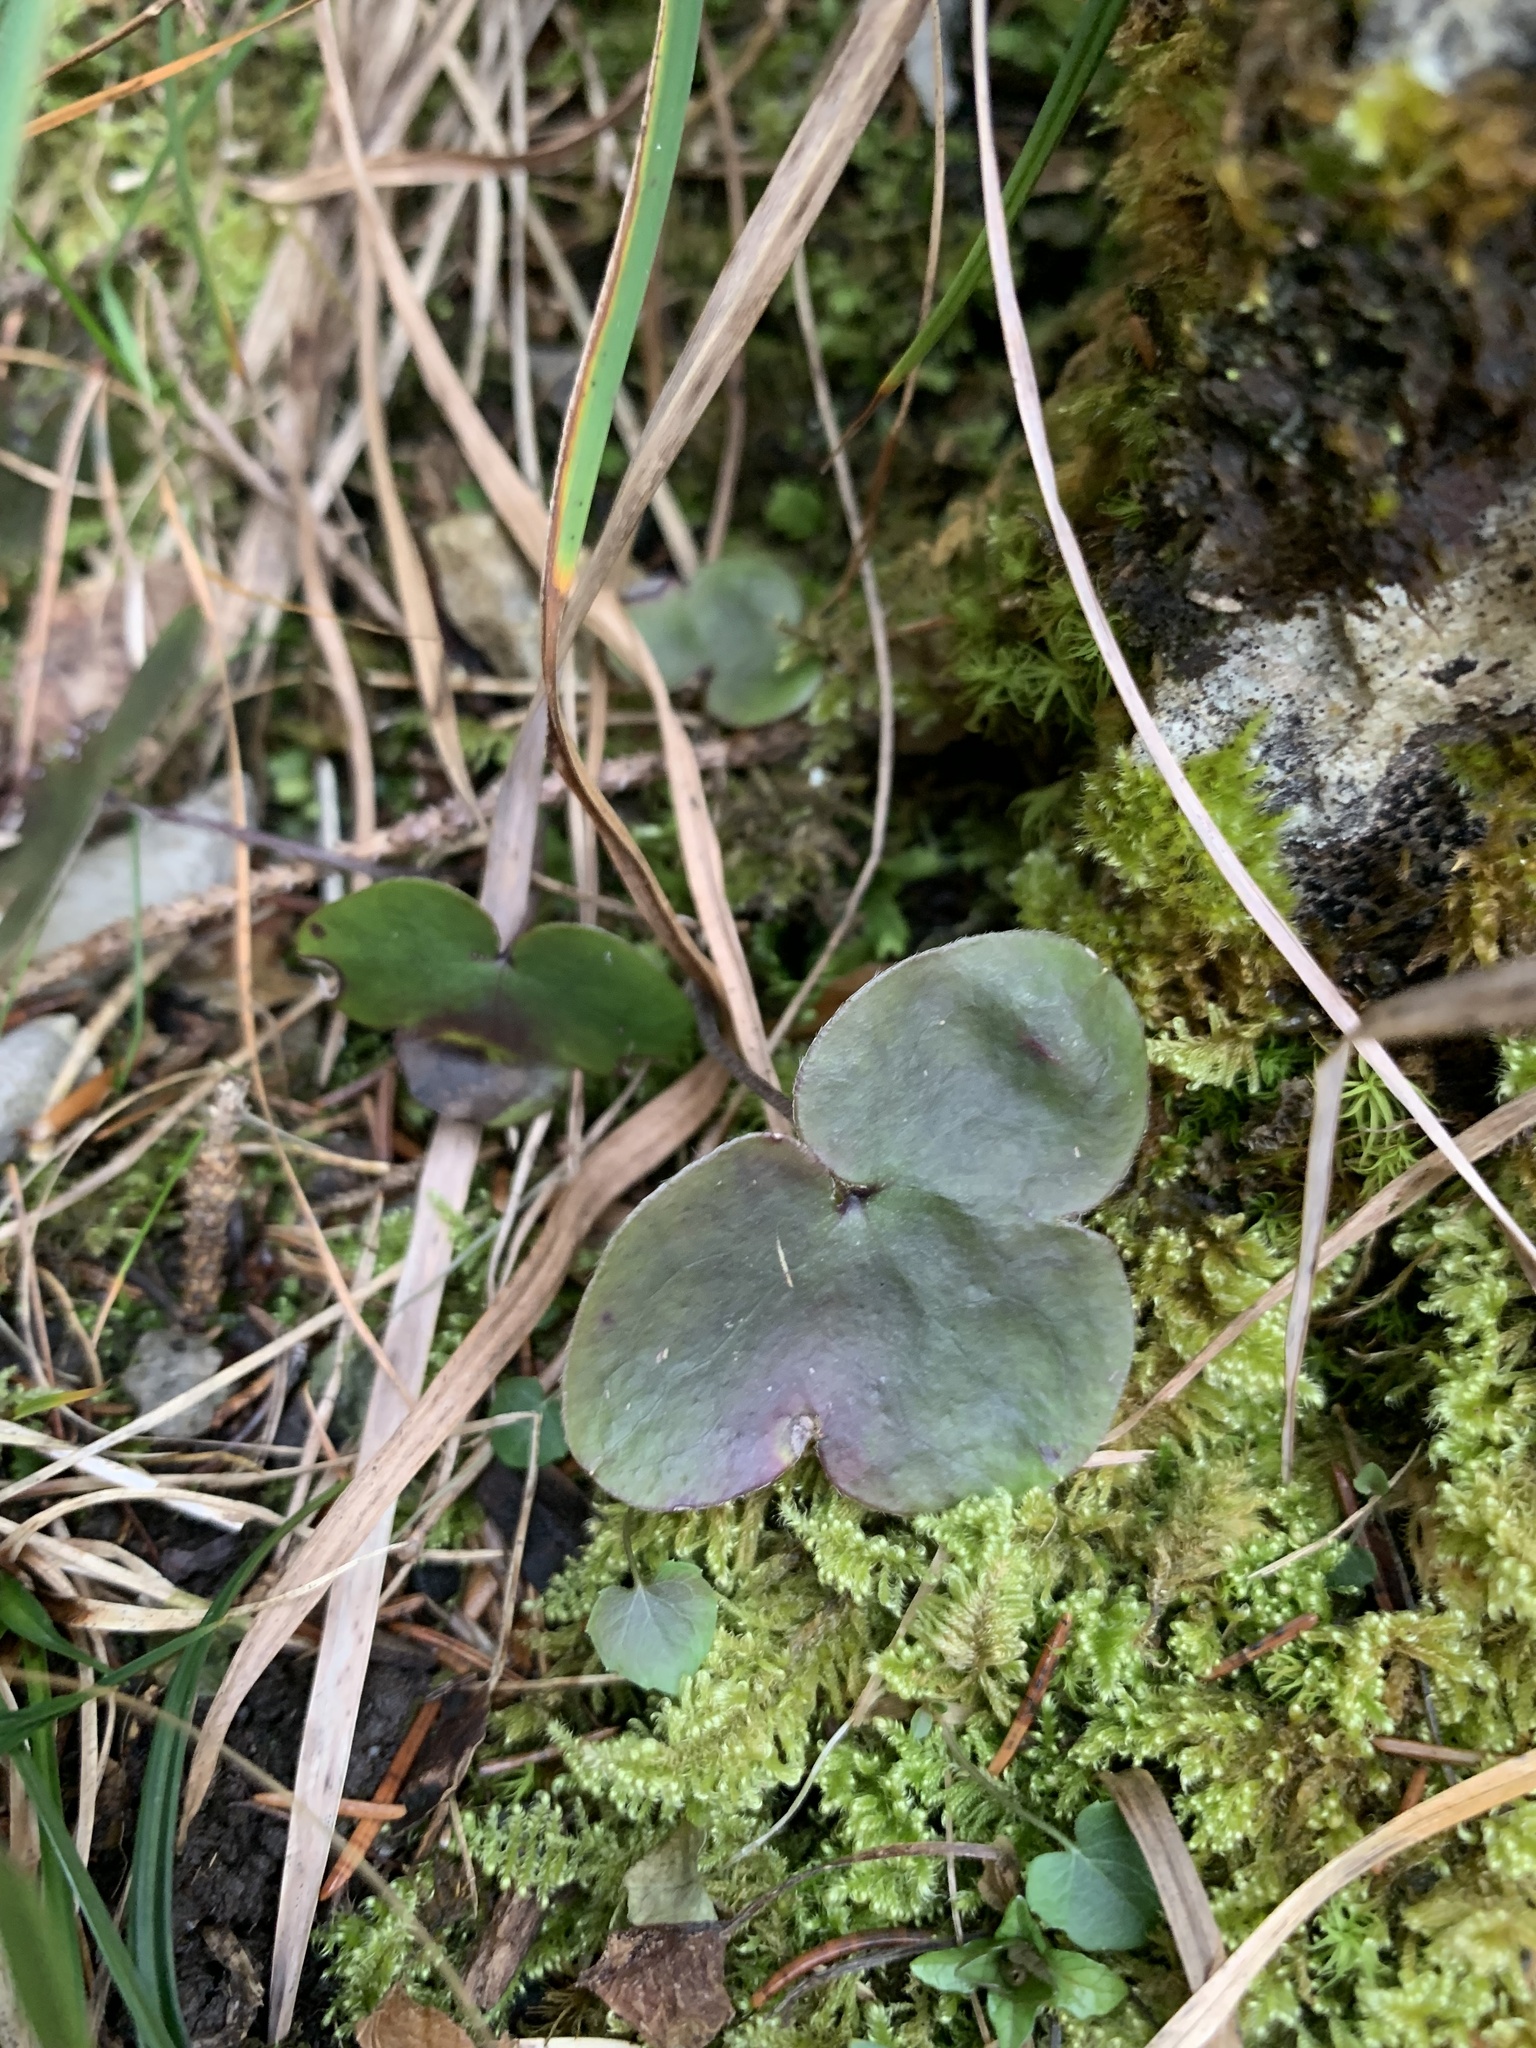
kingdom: Plantae
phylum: Tracheophyta
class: Magnoliopsida
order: Ranunculales
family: Ranunculaceae
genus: Hepatica
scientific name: Hepatica nobilis
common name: Liverleaf
